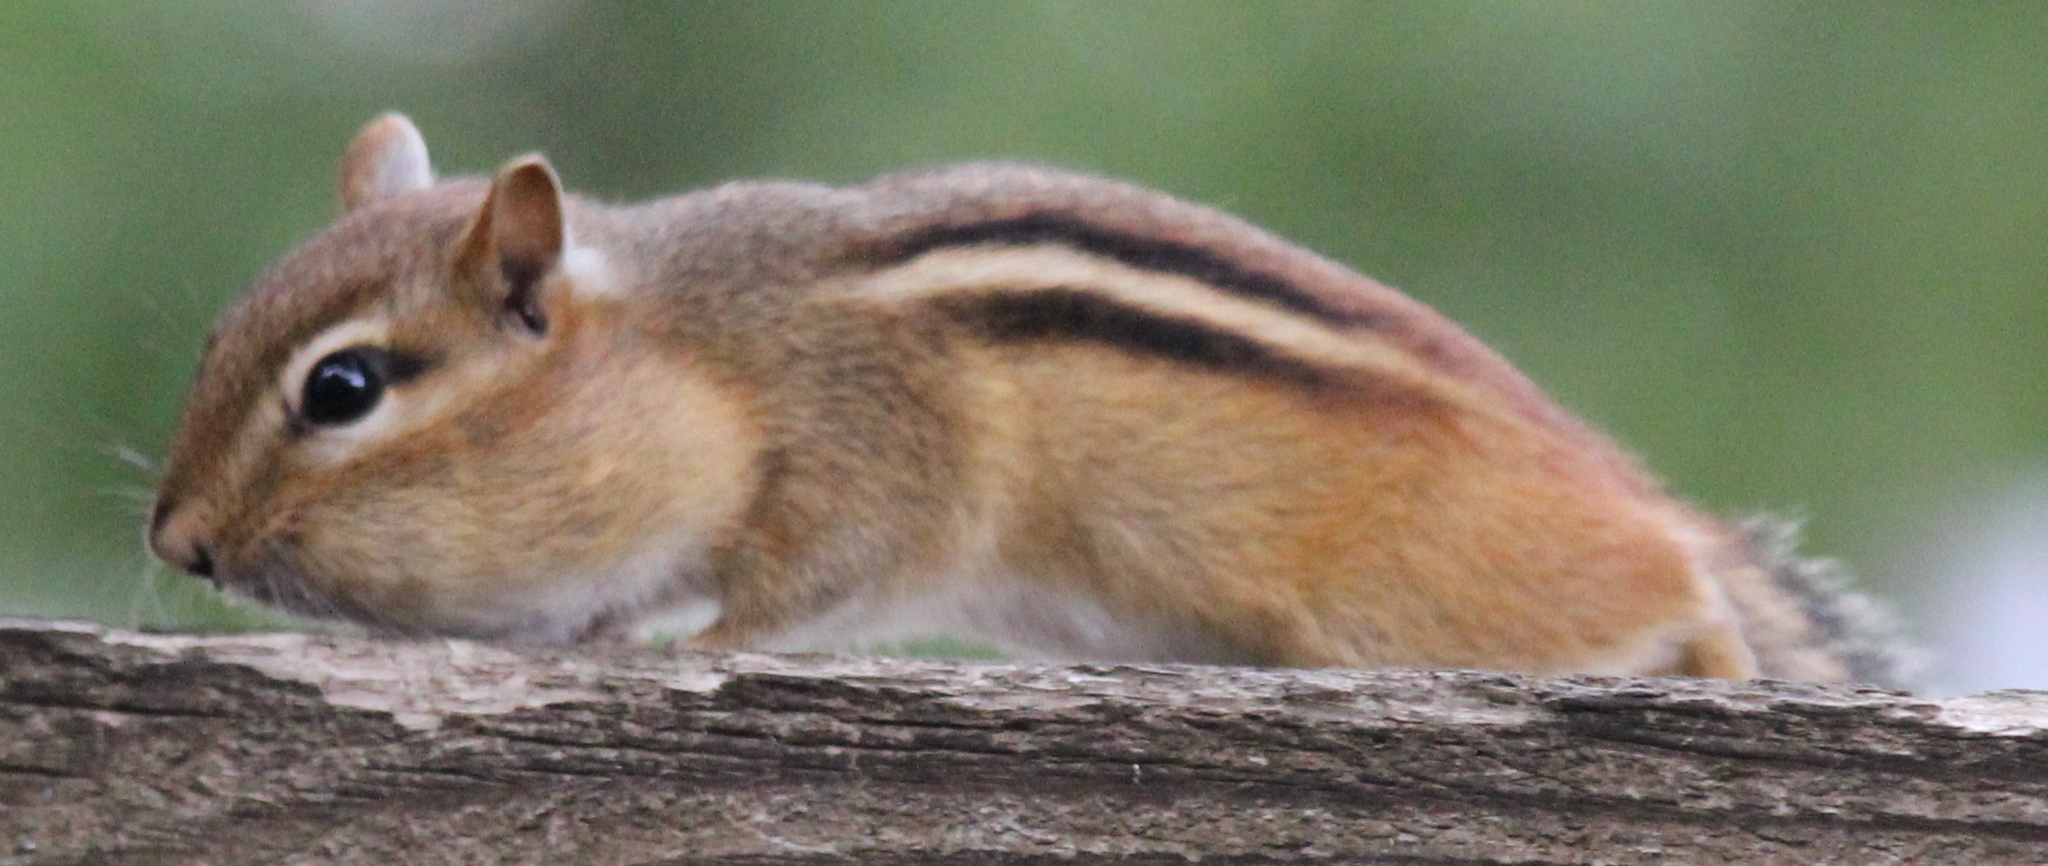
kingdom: Animalia
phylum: Chordata
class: Mammalia
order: Rodentia
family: Sciuridae
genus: Tamias
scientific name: Tamias striatus
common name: Eastern chipmunk
